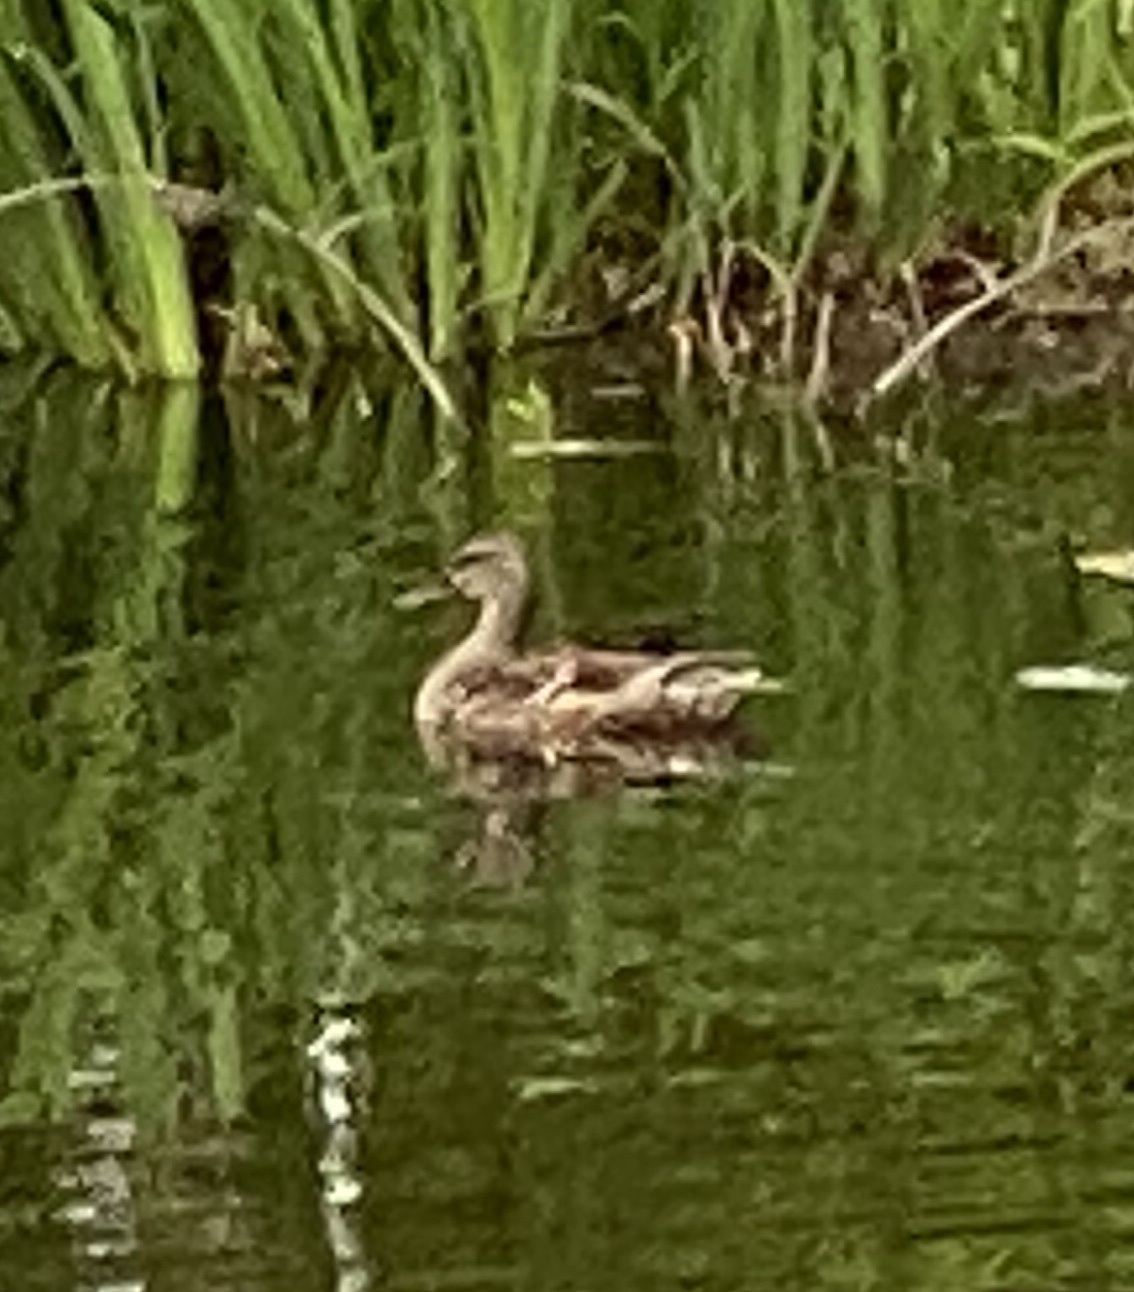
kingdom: Animalia
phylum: Chordata
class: Aves
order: Anseriformes
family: Anatidae
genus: Anas
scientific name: Anas platyrhynchos
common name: Mallard
